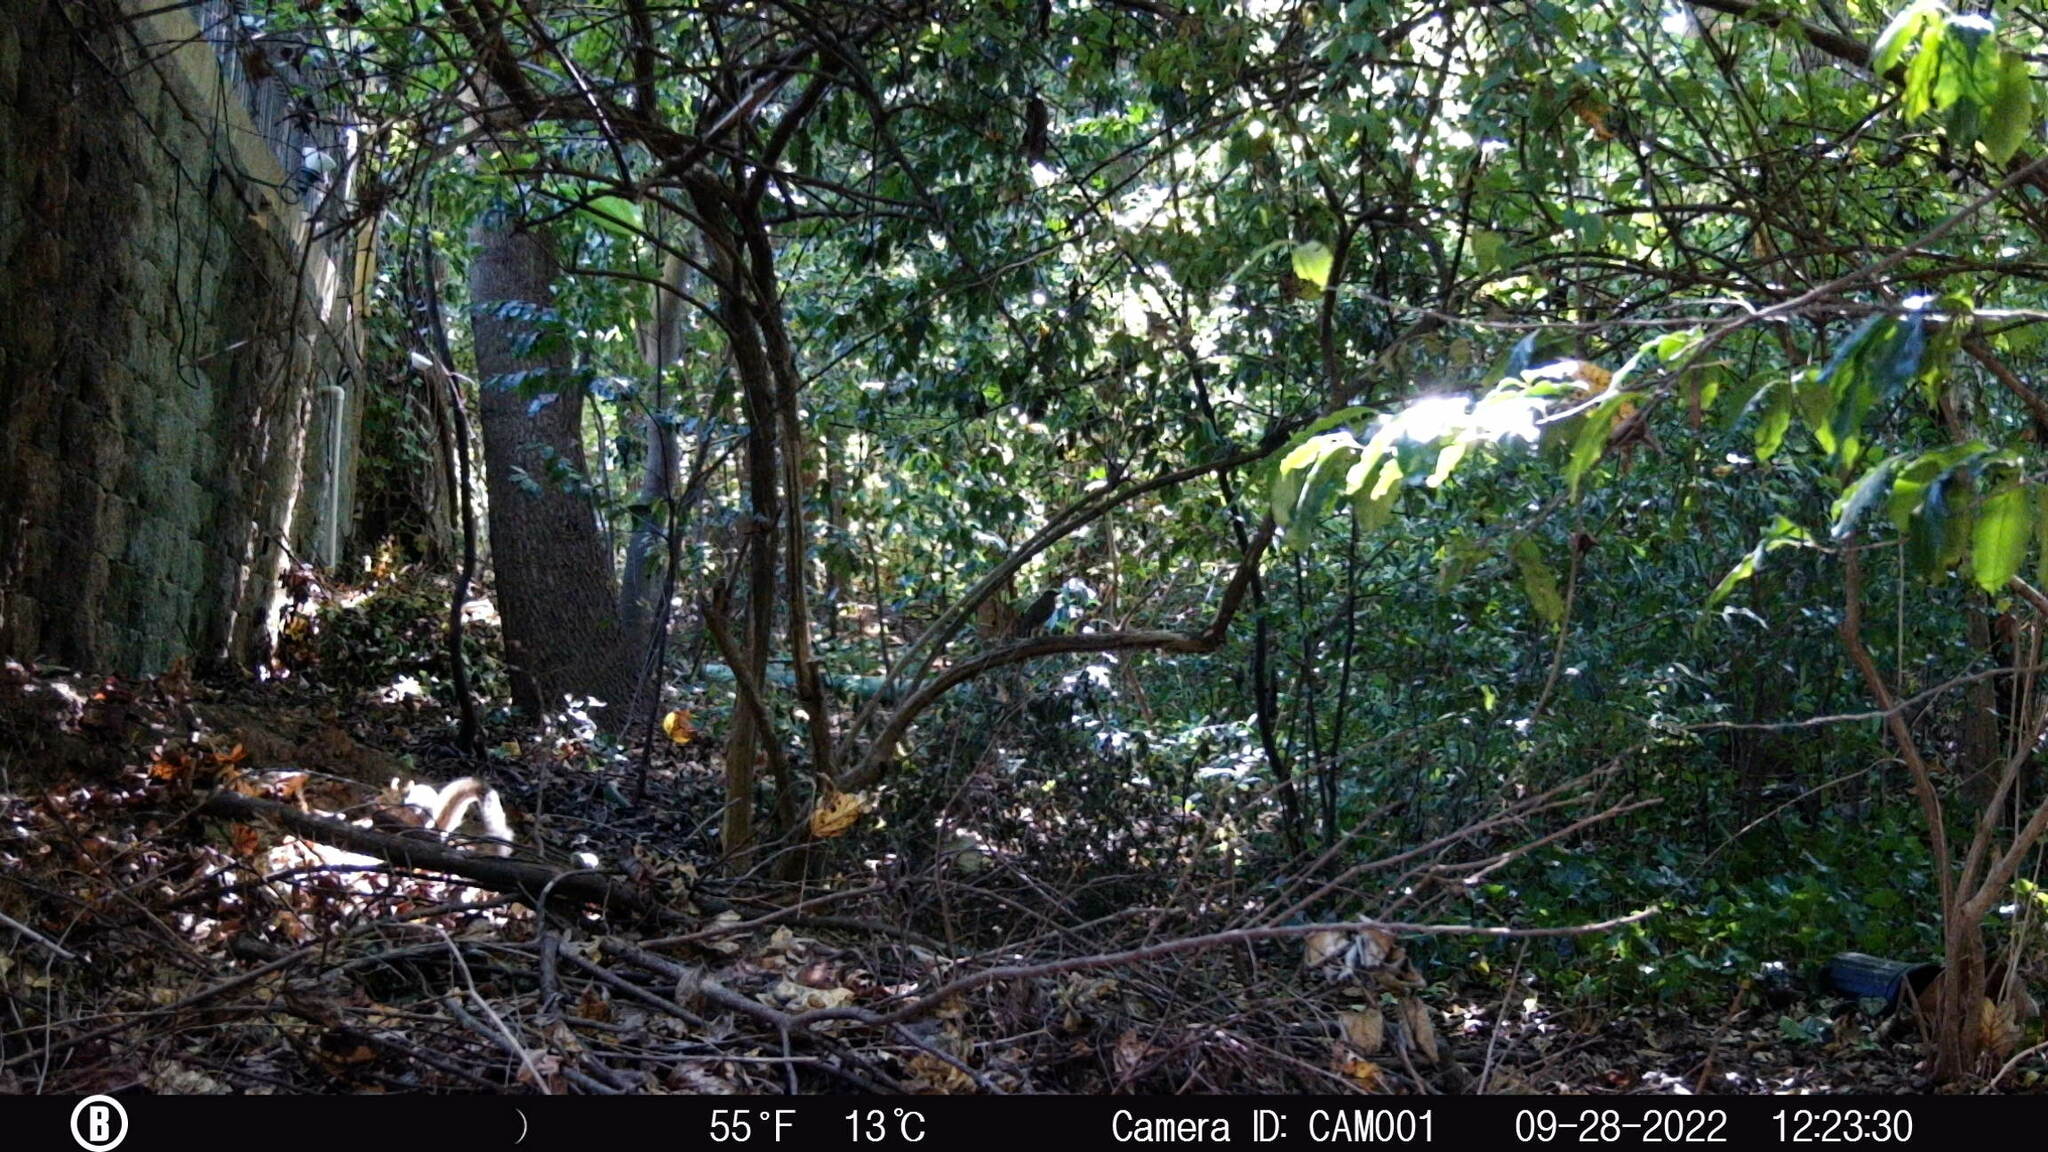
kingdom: Animalia
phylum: Chordata
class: Mammalia
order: Rodentia
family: Sciuridae
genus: Sciurus
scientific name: Sciurus carolinensis
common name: Eastern gray squirrel
